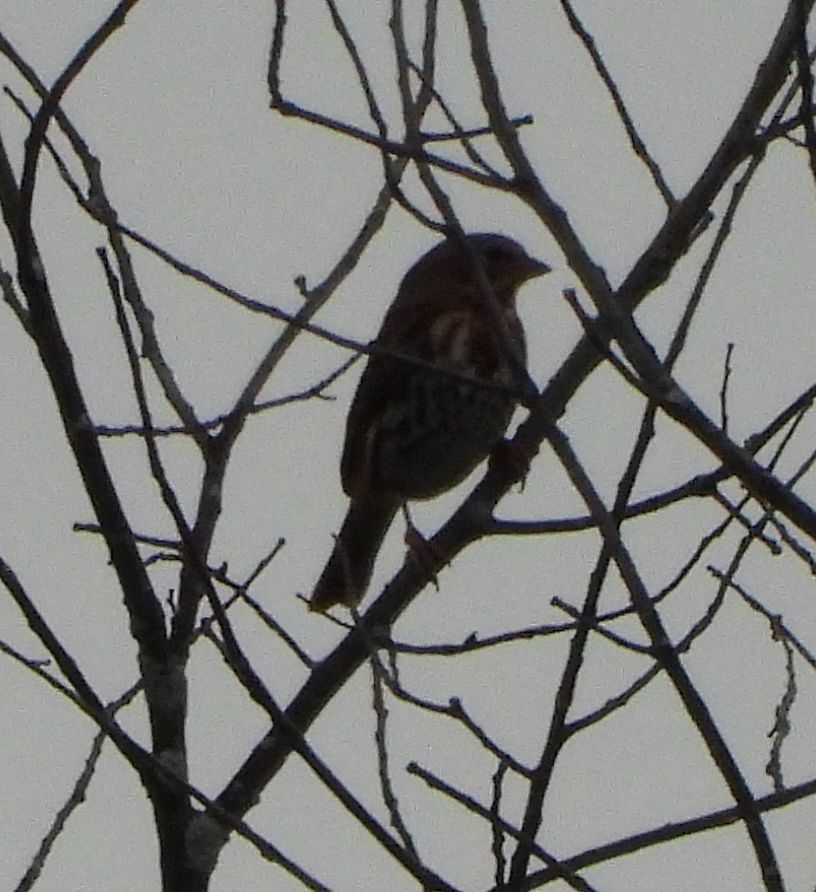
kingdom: Animalia
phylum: Chordata
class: Aves
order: Passeriformes
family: Passerellidae
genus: Passerella
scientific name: Passerella iliaca
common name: Fox sparrow
